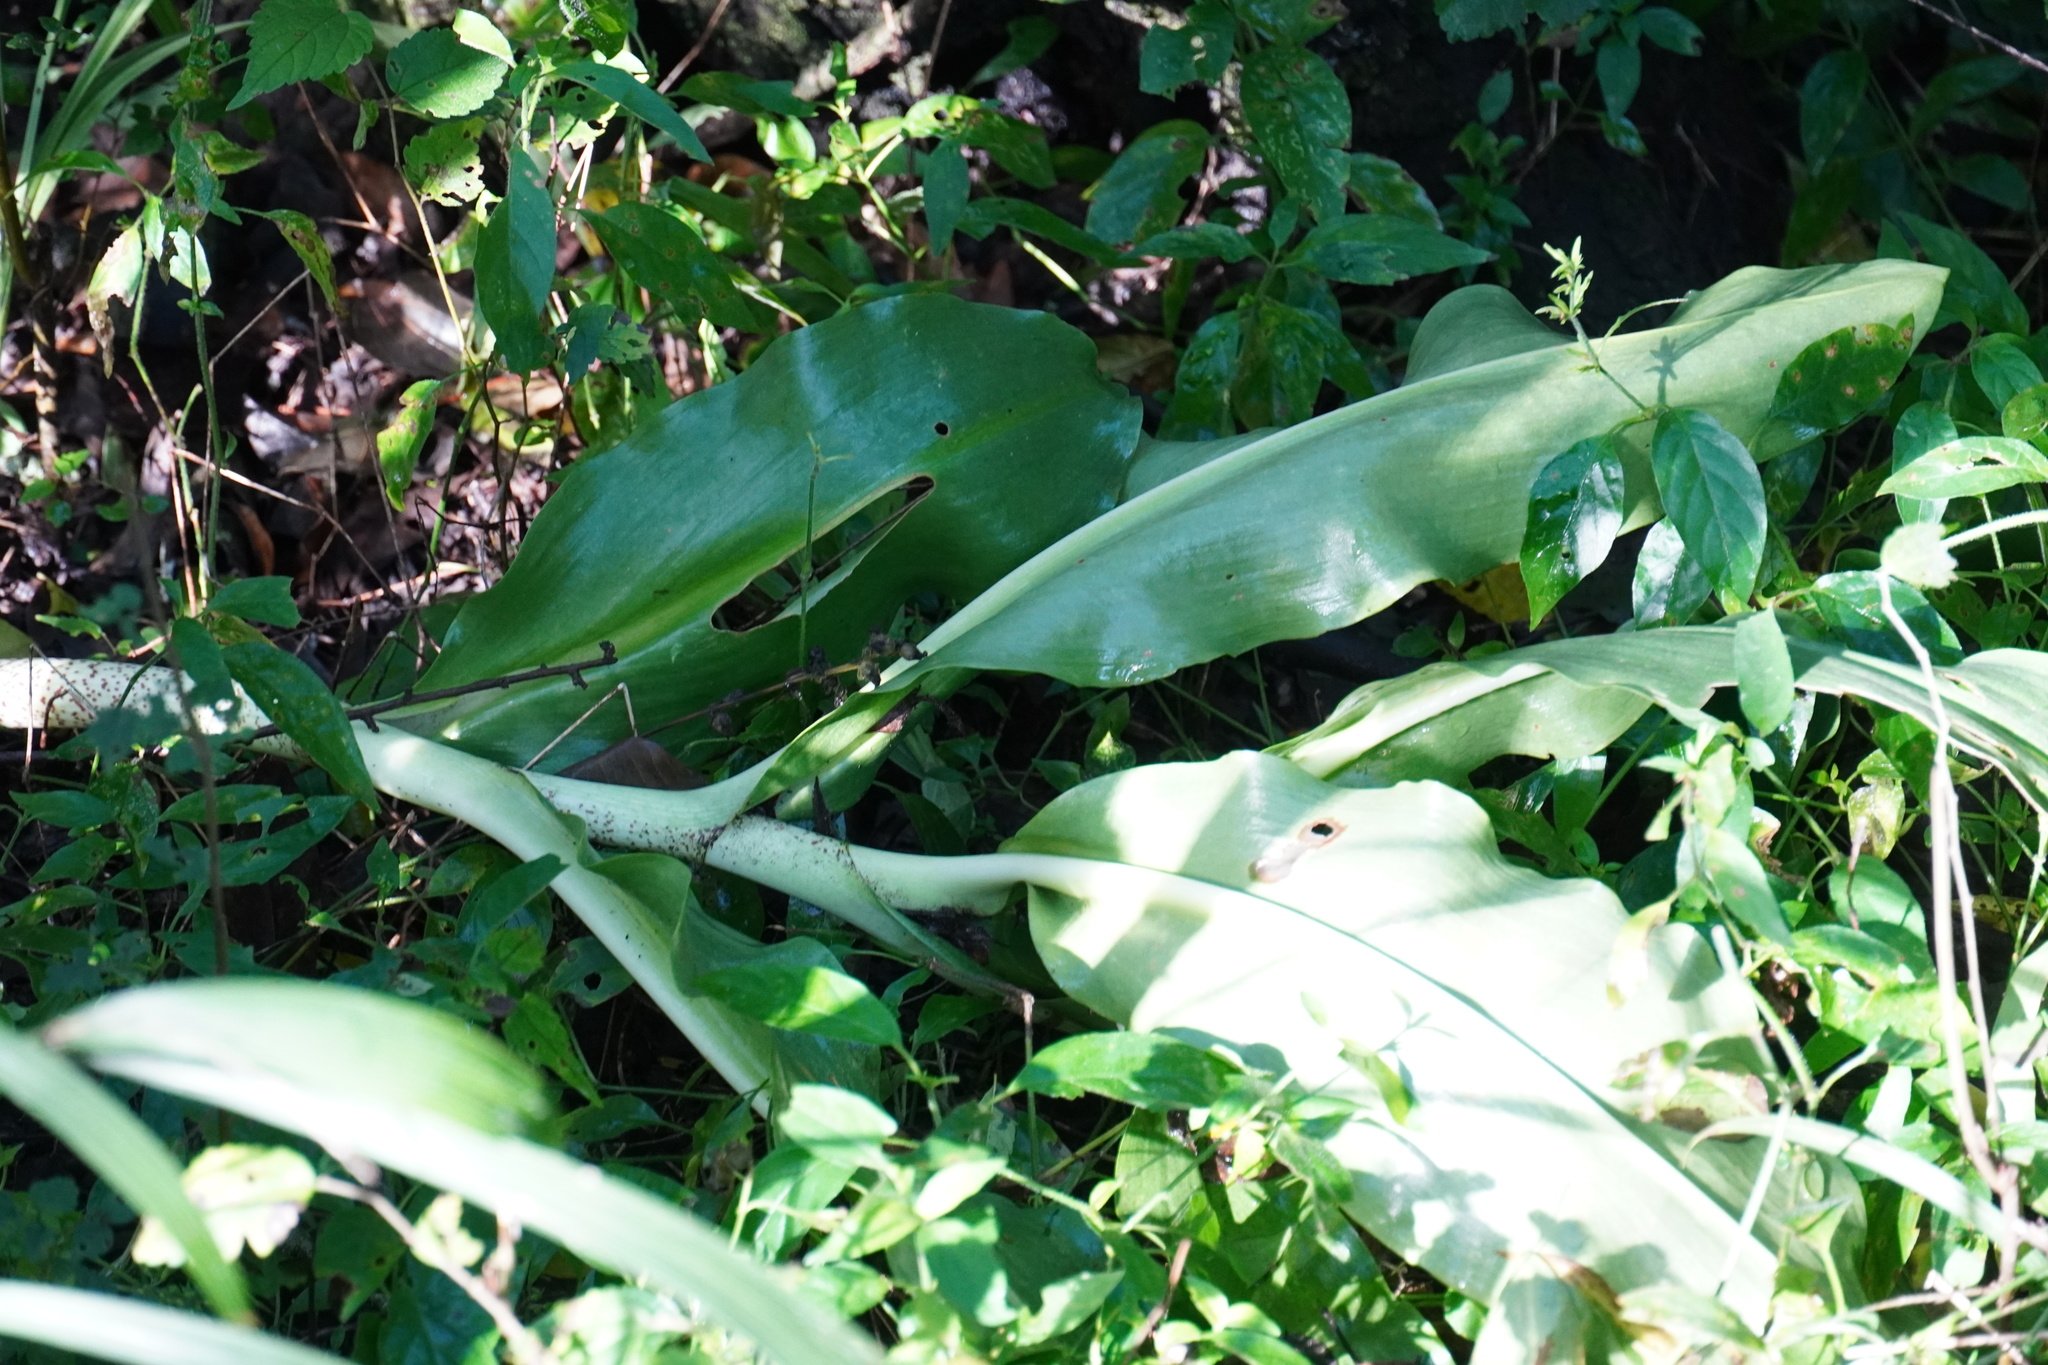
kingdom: Plantae
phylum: Tracheophyta
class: Liliopsida
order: Asparagales
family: Amaryllidaceae
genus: Scadoxus
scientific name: Scadoxus puniceus
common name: Royal-paintbrush
